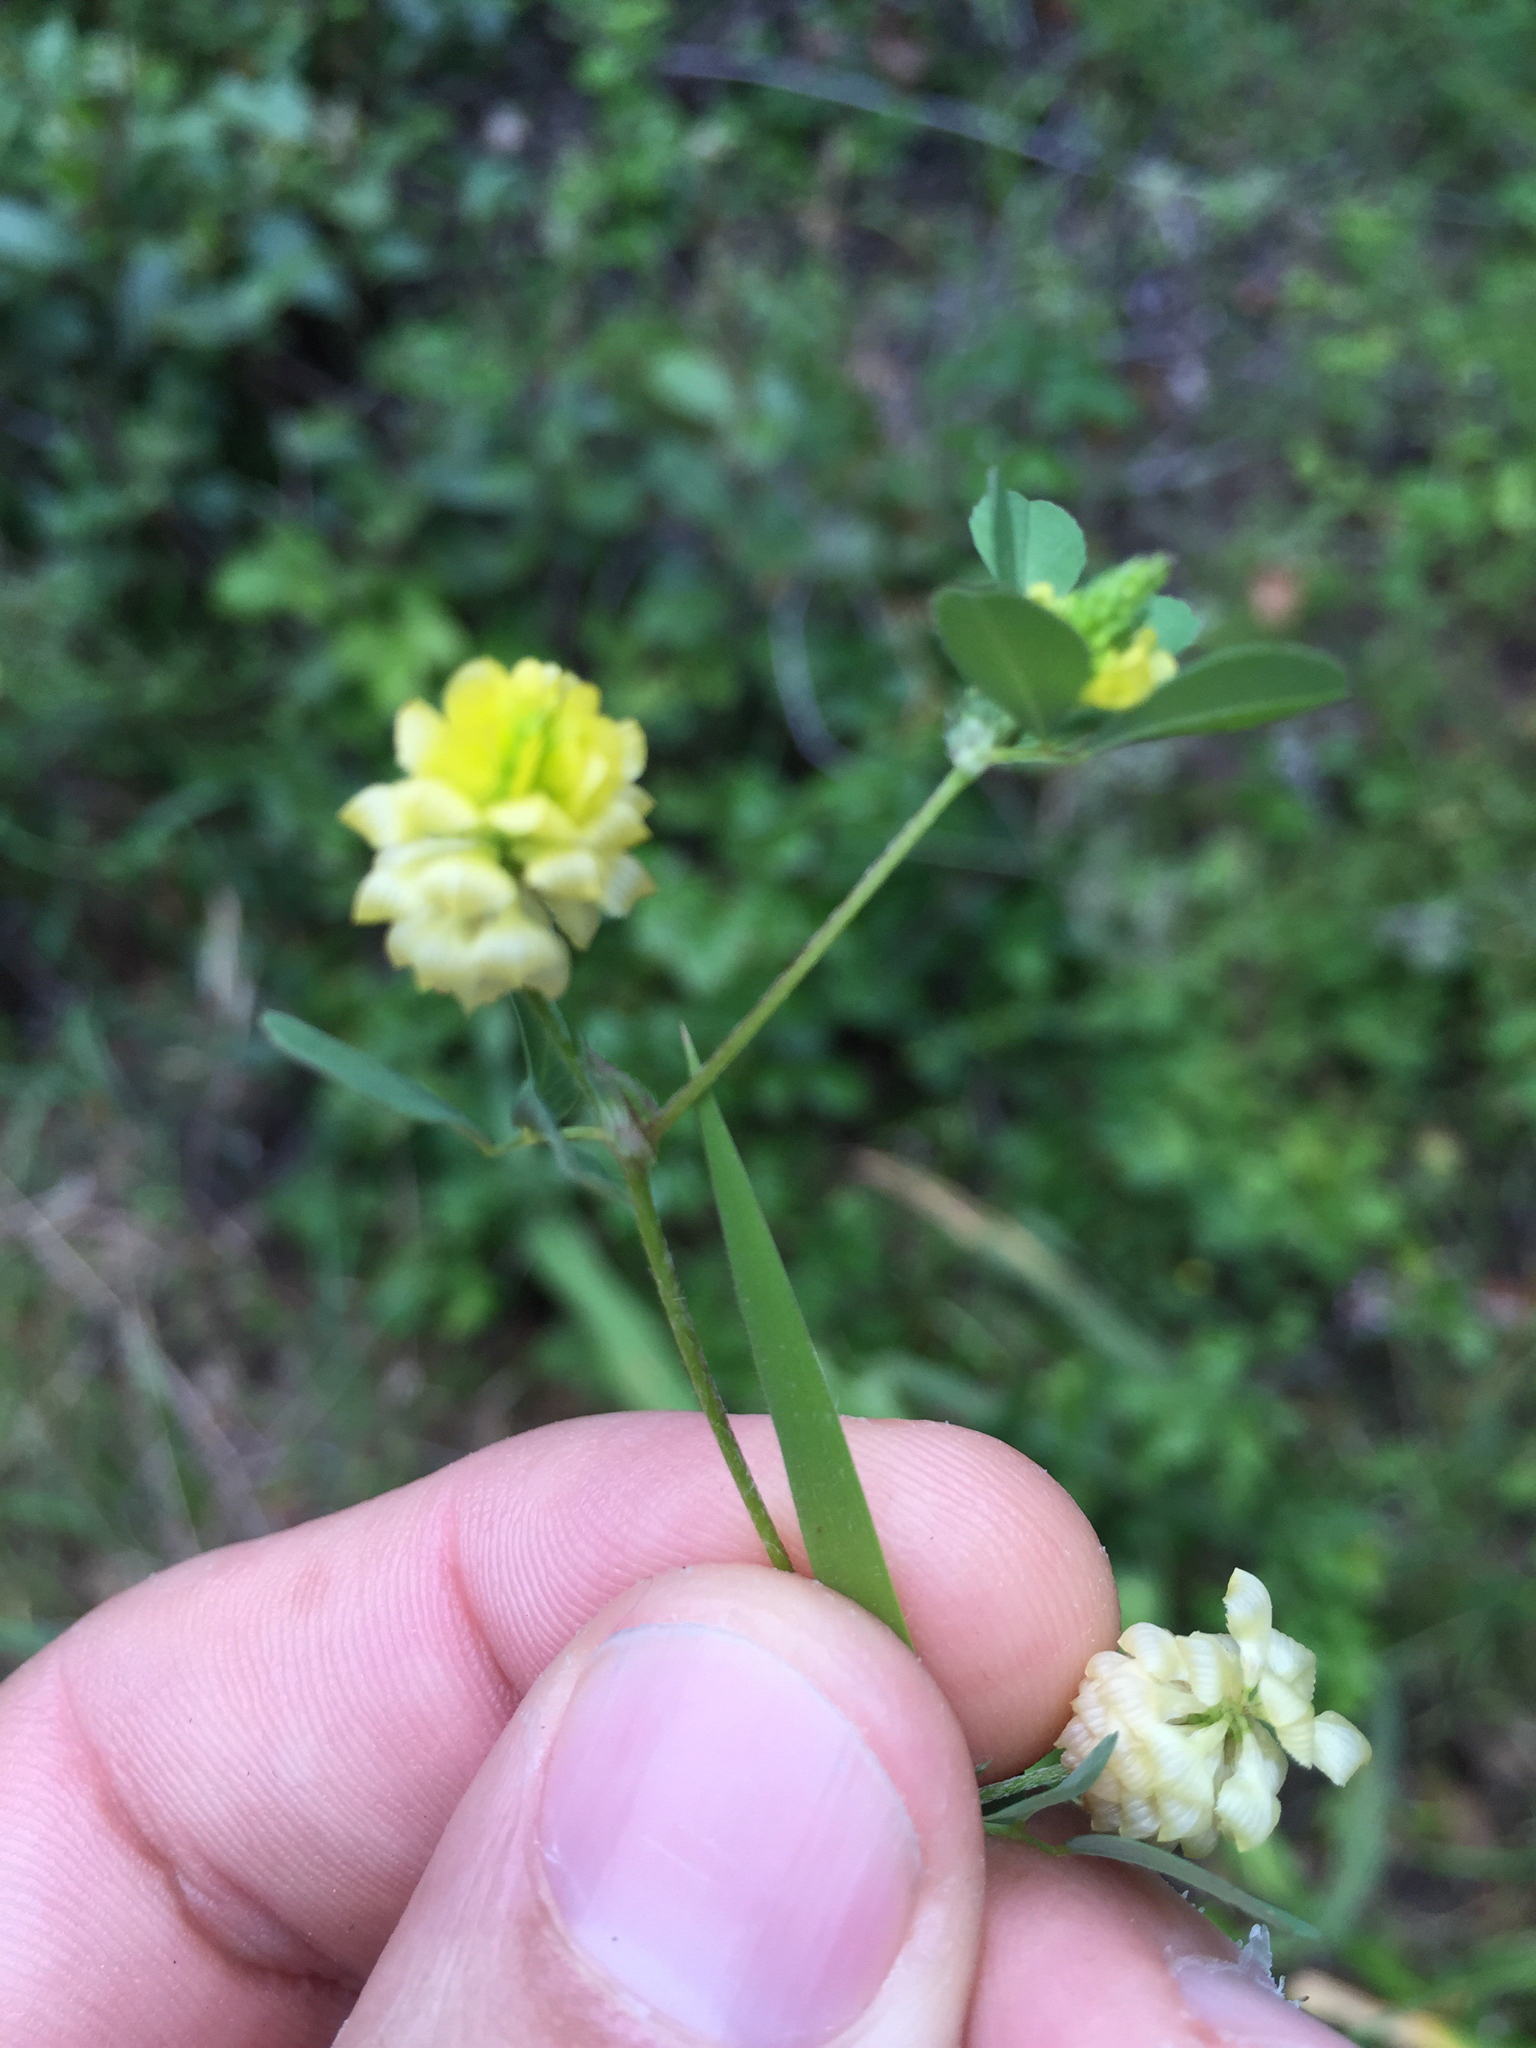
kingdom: Plantae
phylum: Tracheophyta
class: Magnoliopsida
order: Fabales
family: Fabaceae
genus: Trifolium
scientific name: Trifolium campestre
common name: Field clover
